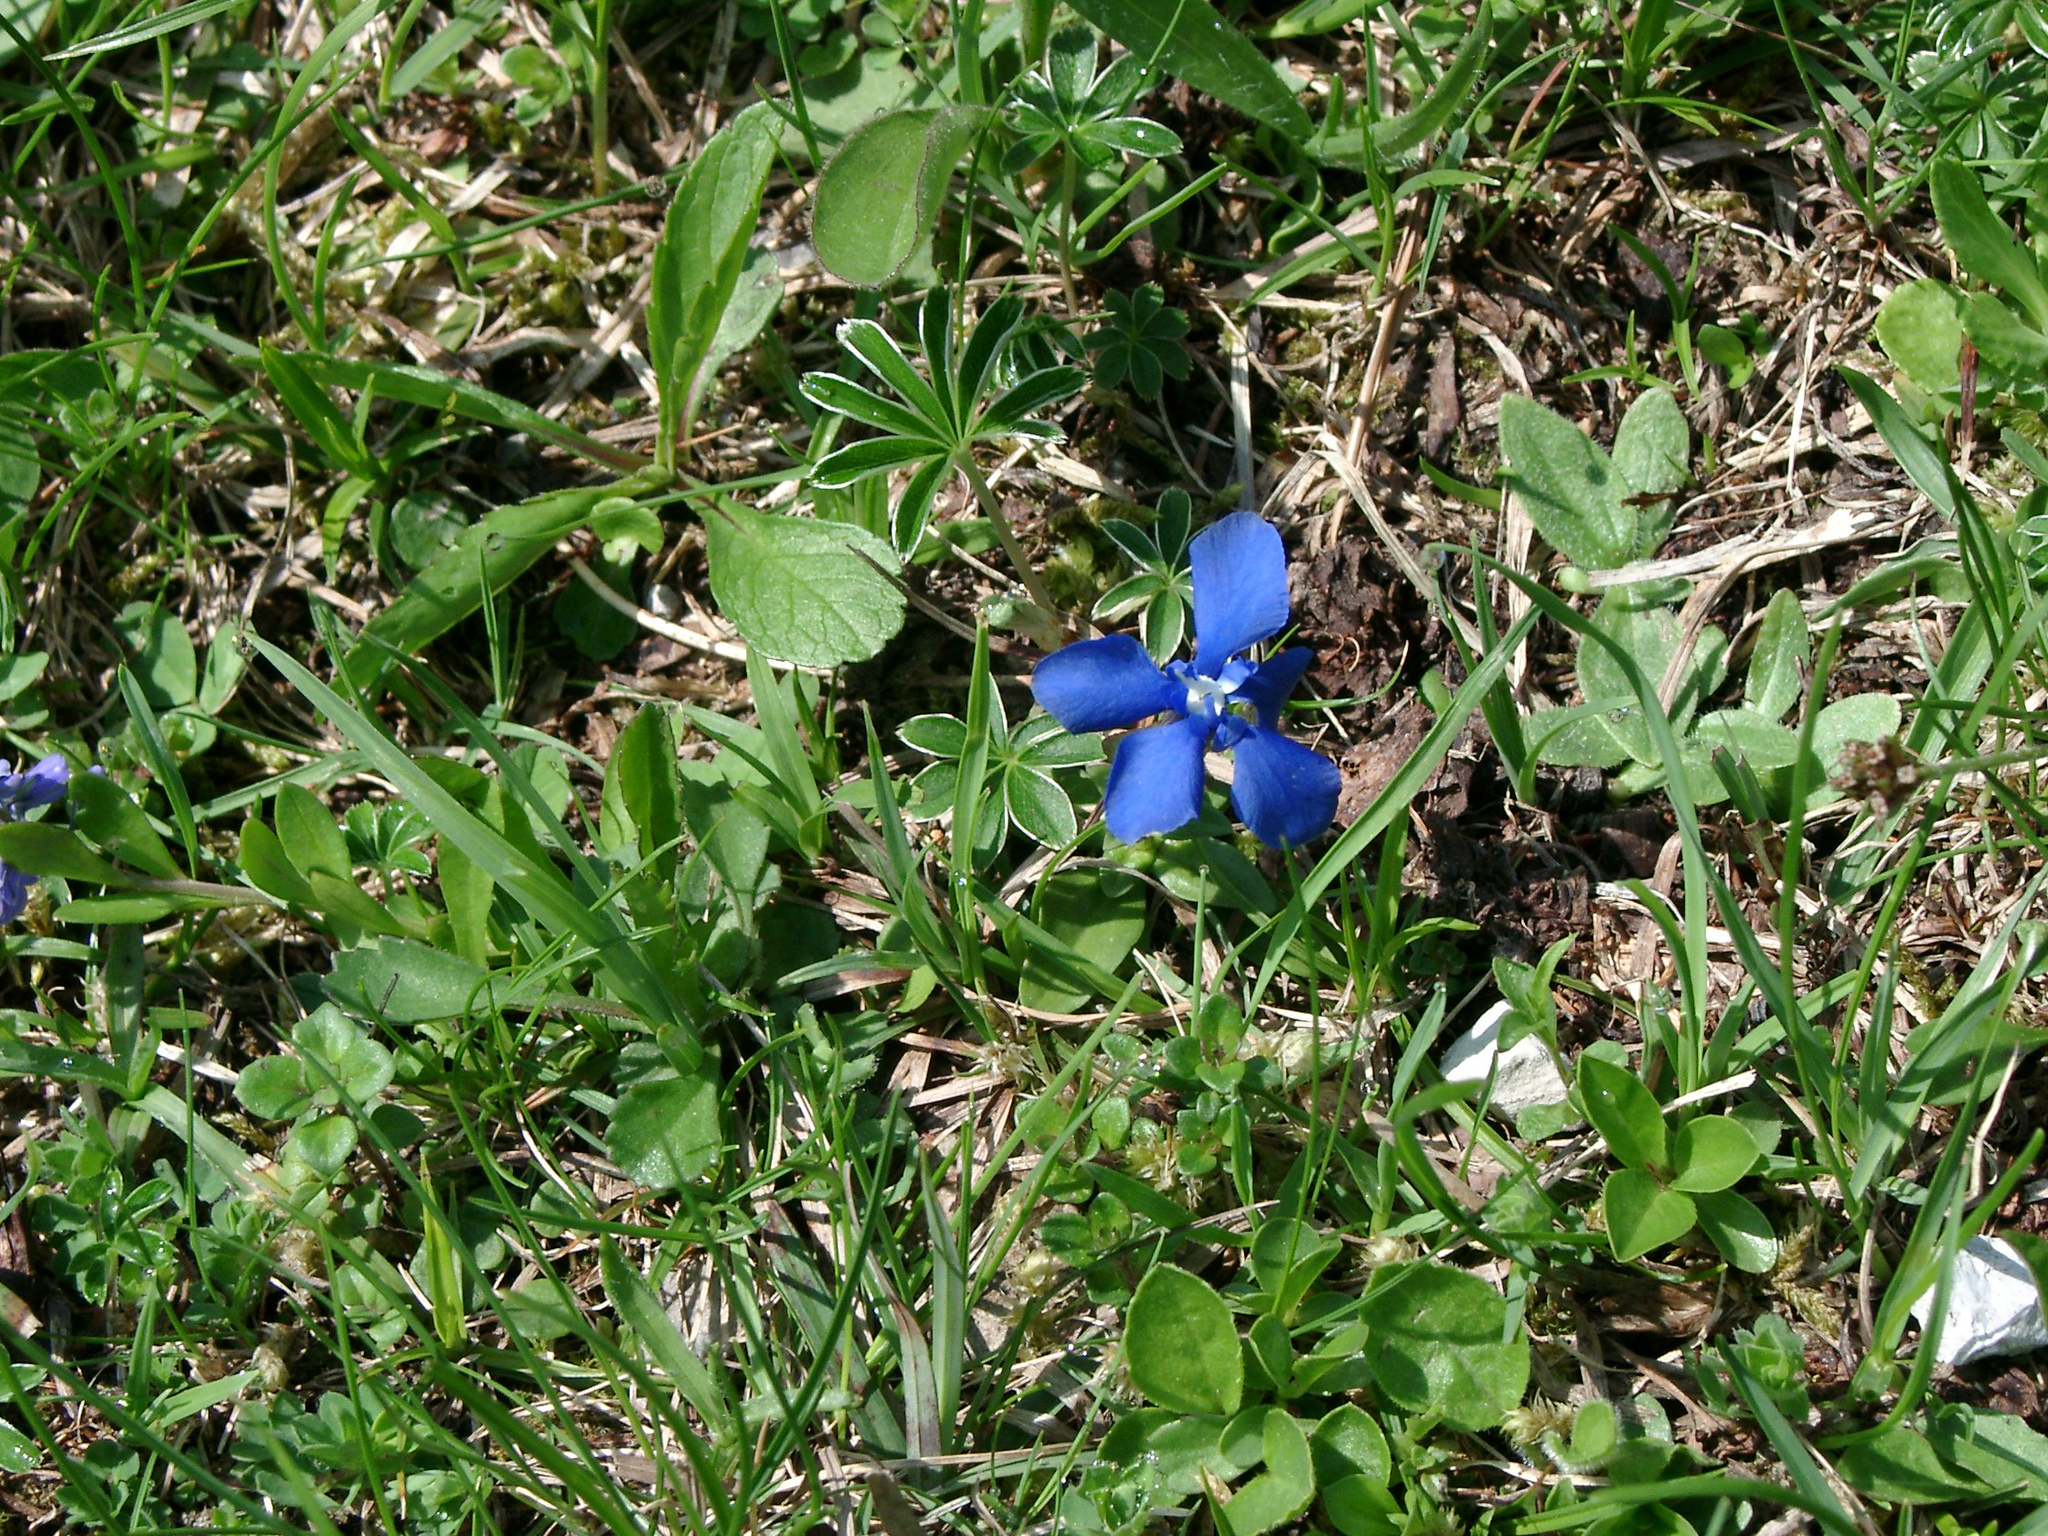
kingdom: Plantae
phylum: Tracheophyta
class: Magnoliopsida
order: Gentianales
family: Gentianaceae
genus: Gentiana
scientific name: Gentiana verna
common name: Spring gentian
